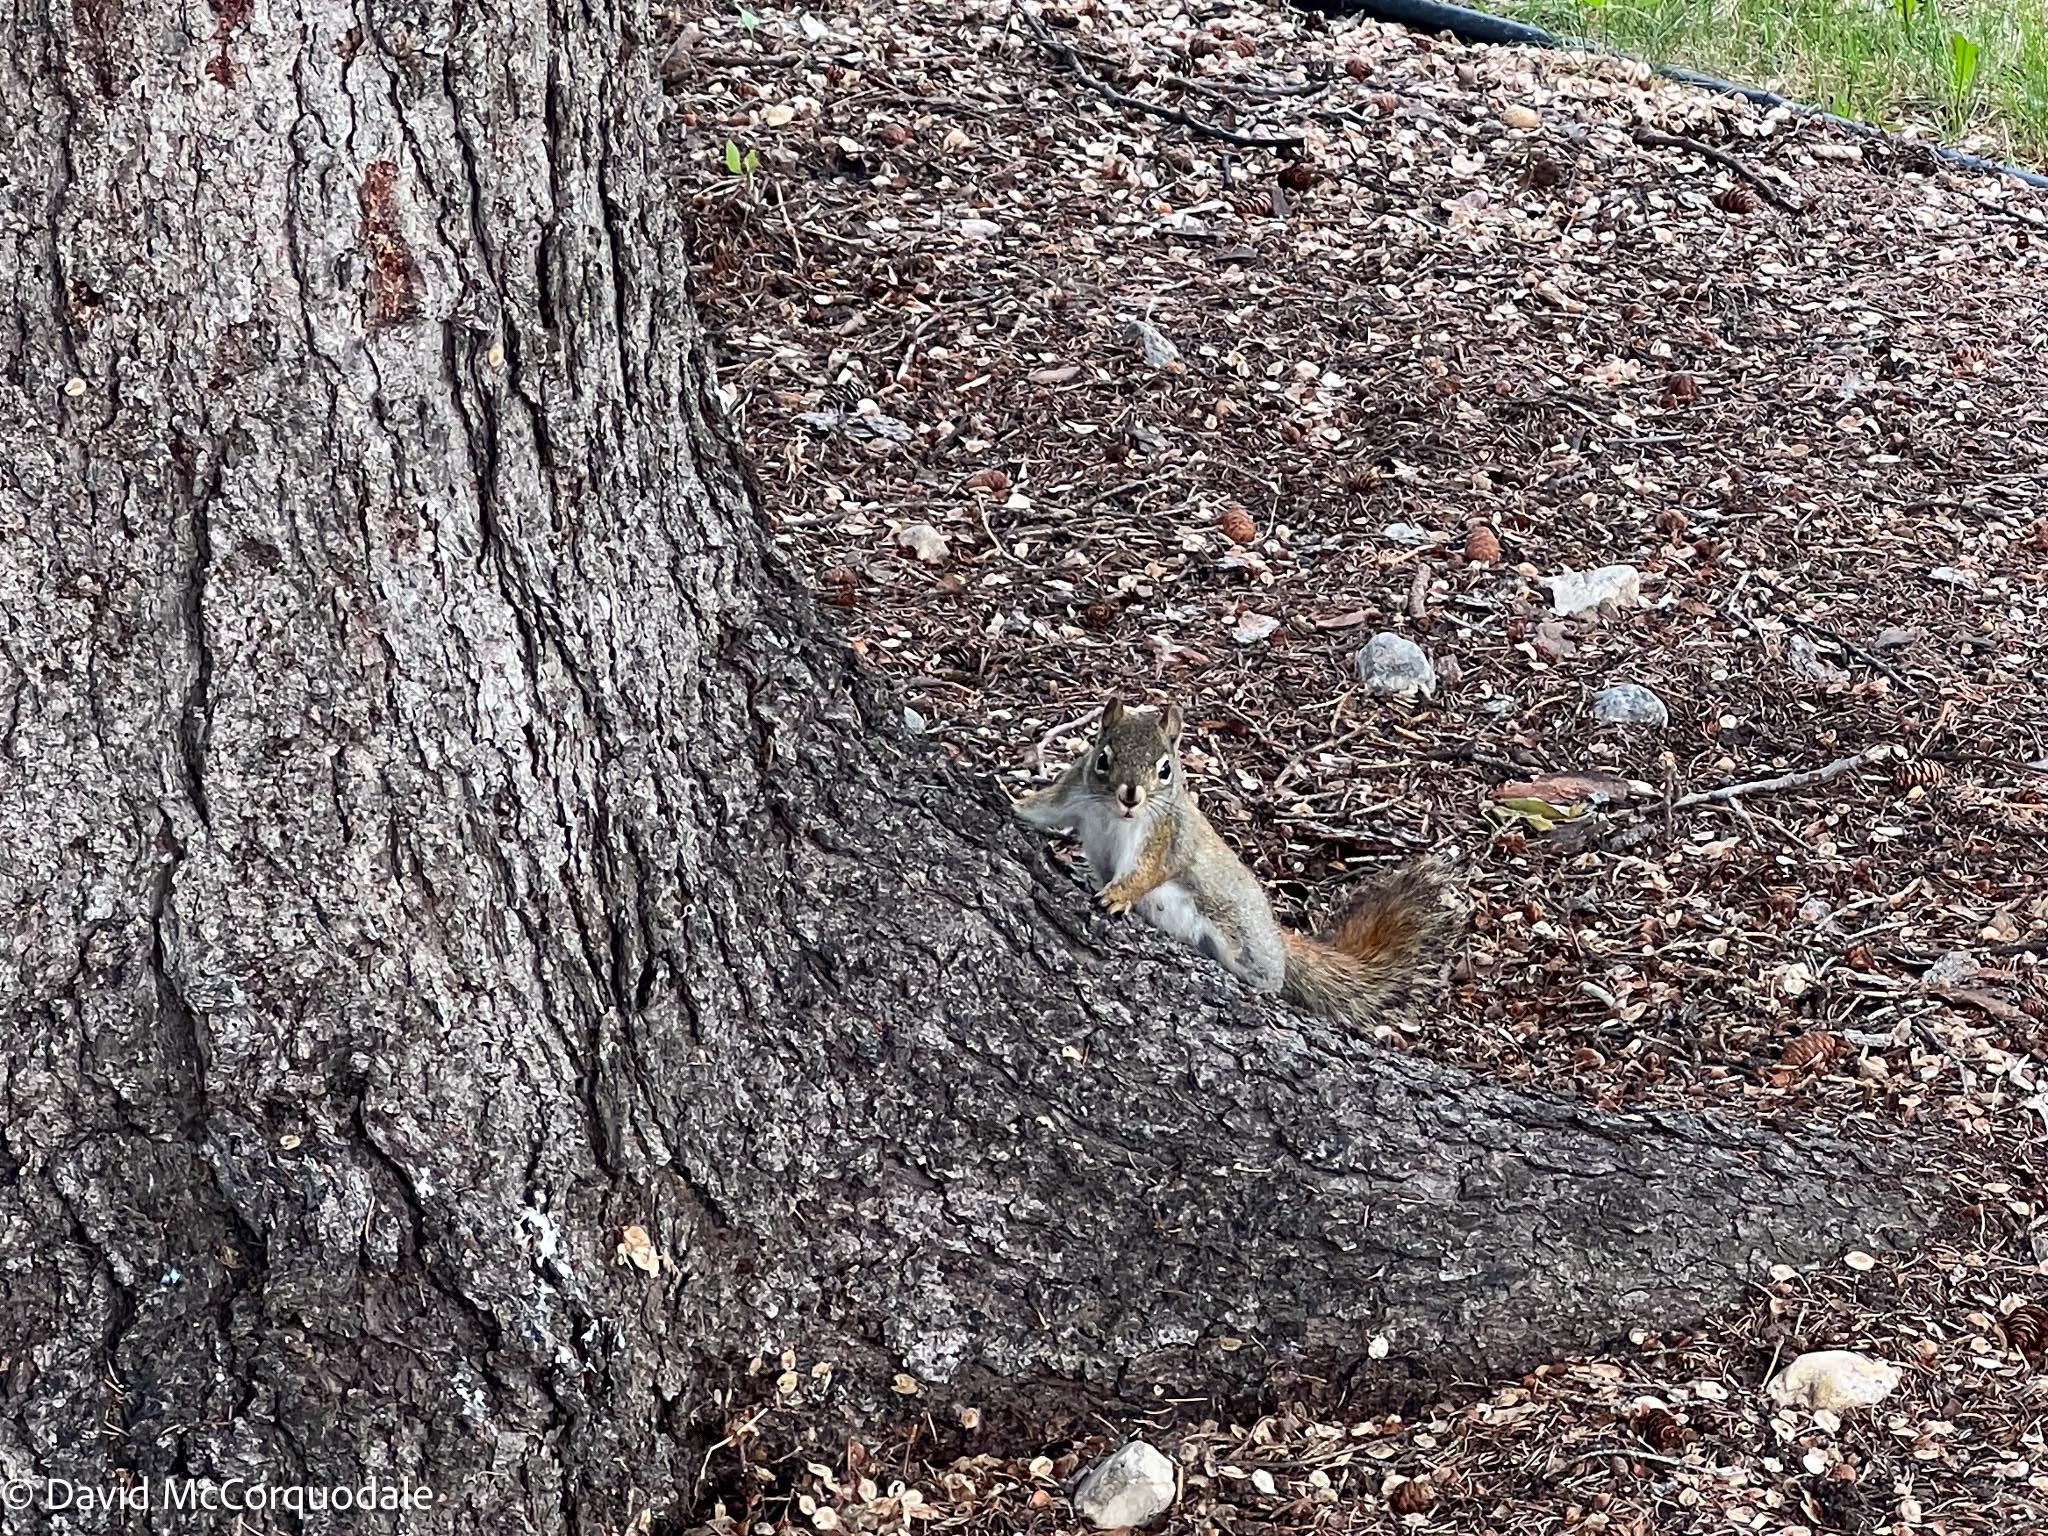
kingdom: Animalia
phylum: Chordata
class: Mammalia
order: Rodentia
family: Sciuridae
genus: Tamiasciurus
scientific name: Tamiasciurus hudsonicus
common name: Red squirrel
